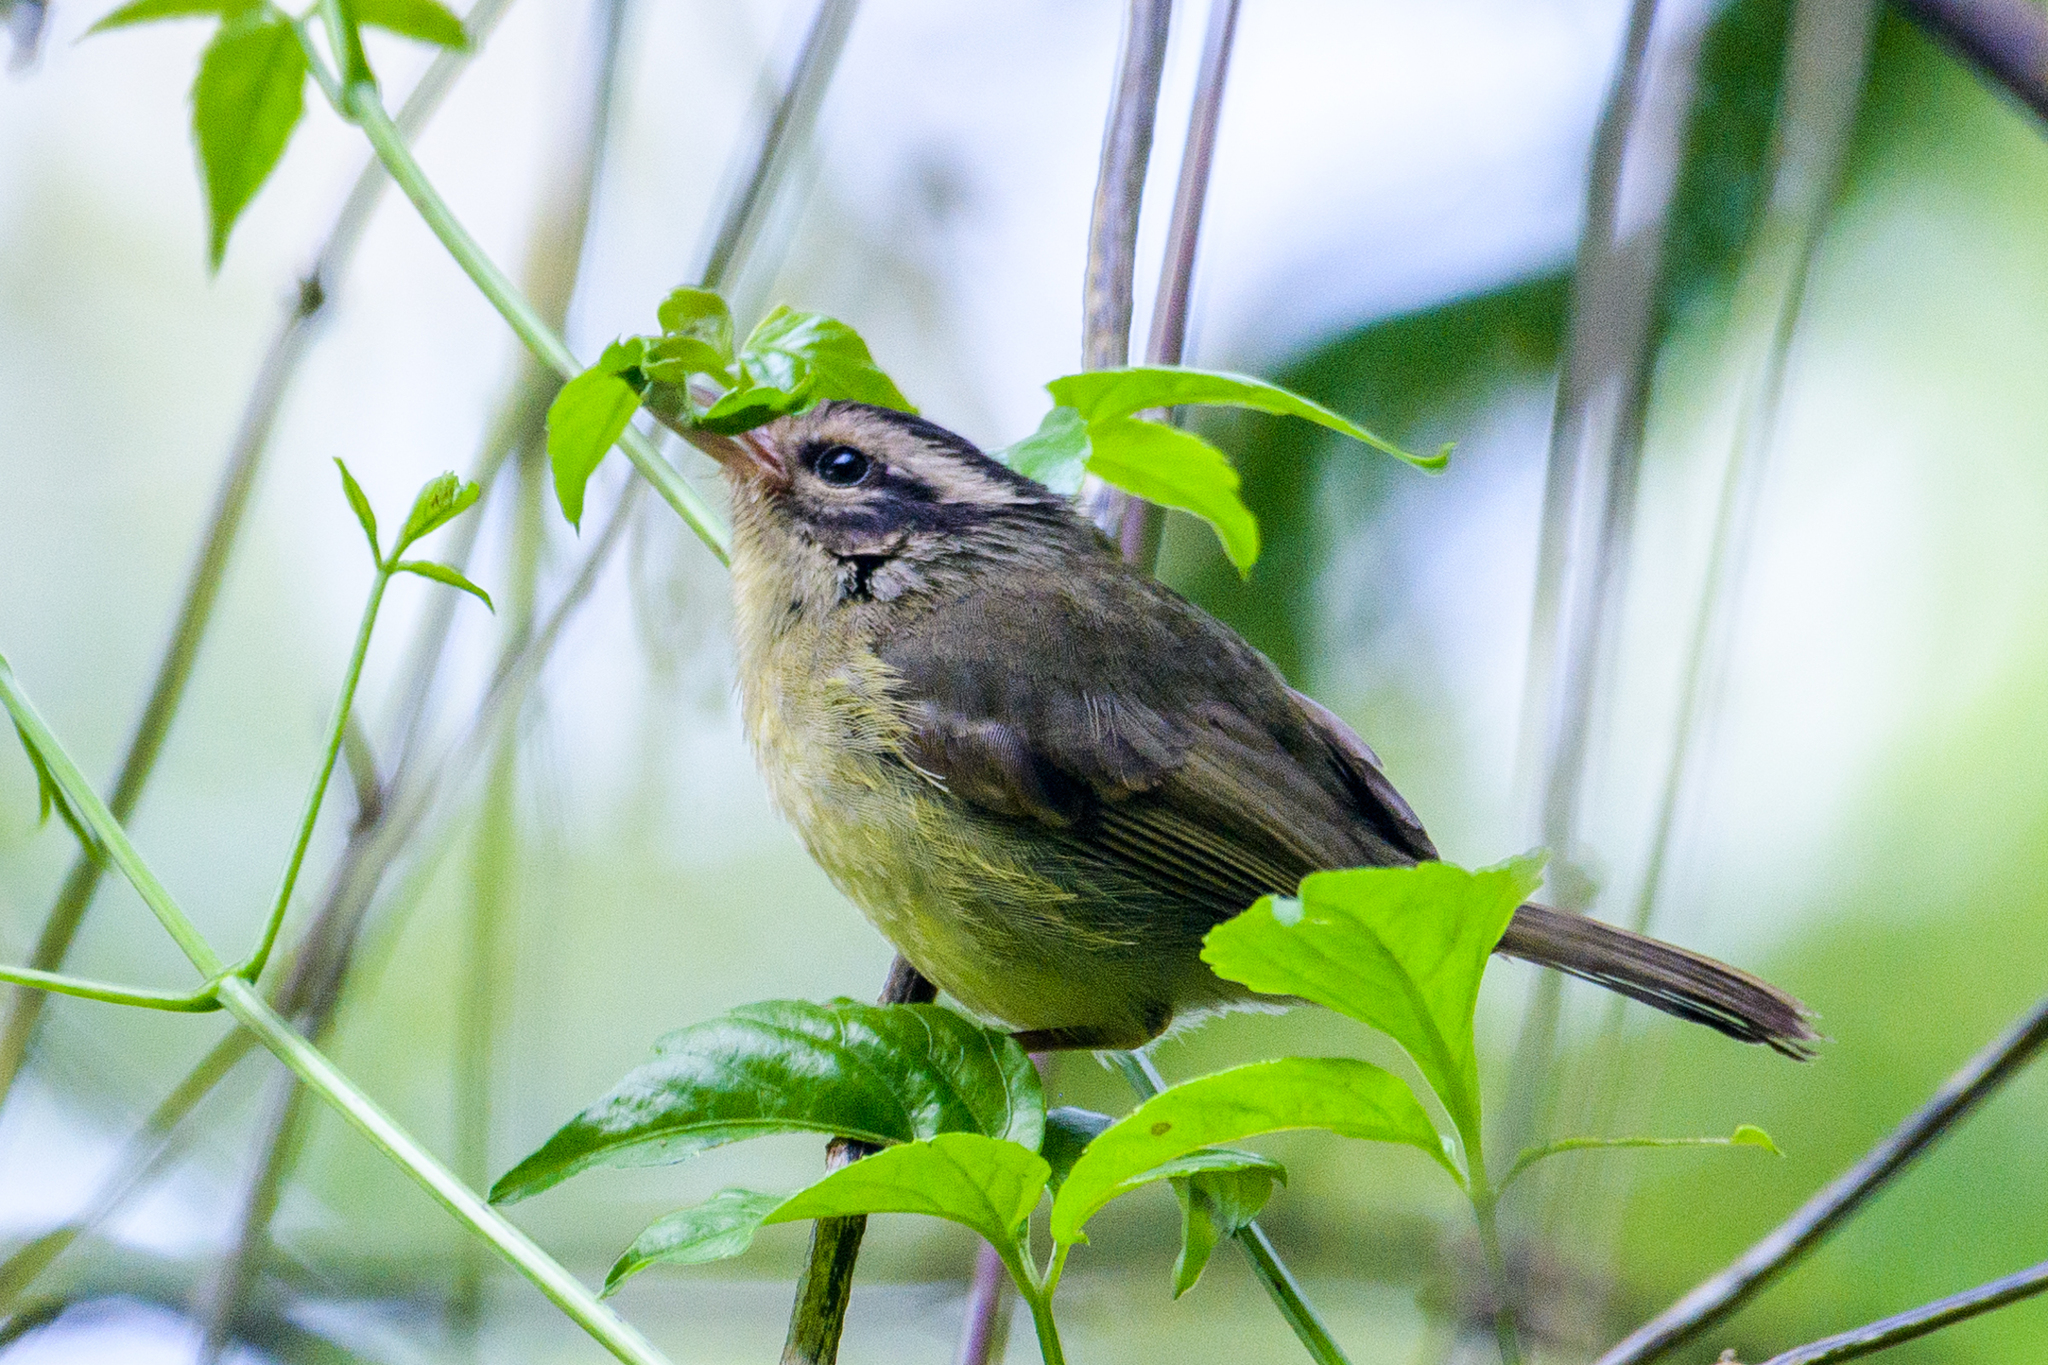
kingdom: Animalia
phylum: Chordata
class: Aves
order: Passeriformes
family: Parulidae
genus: Basileuterus
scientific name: Basileuterus melanotis
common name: Black-eared warbler
